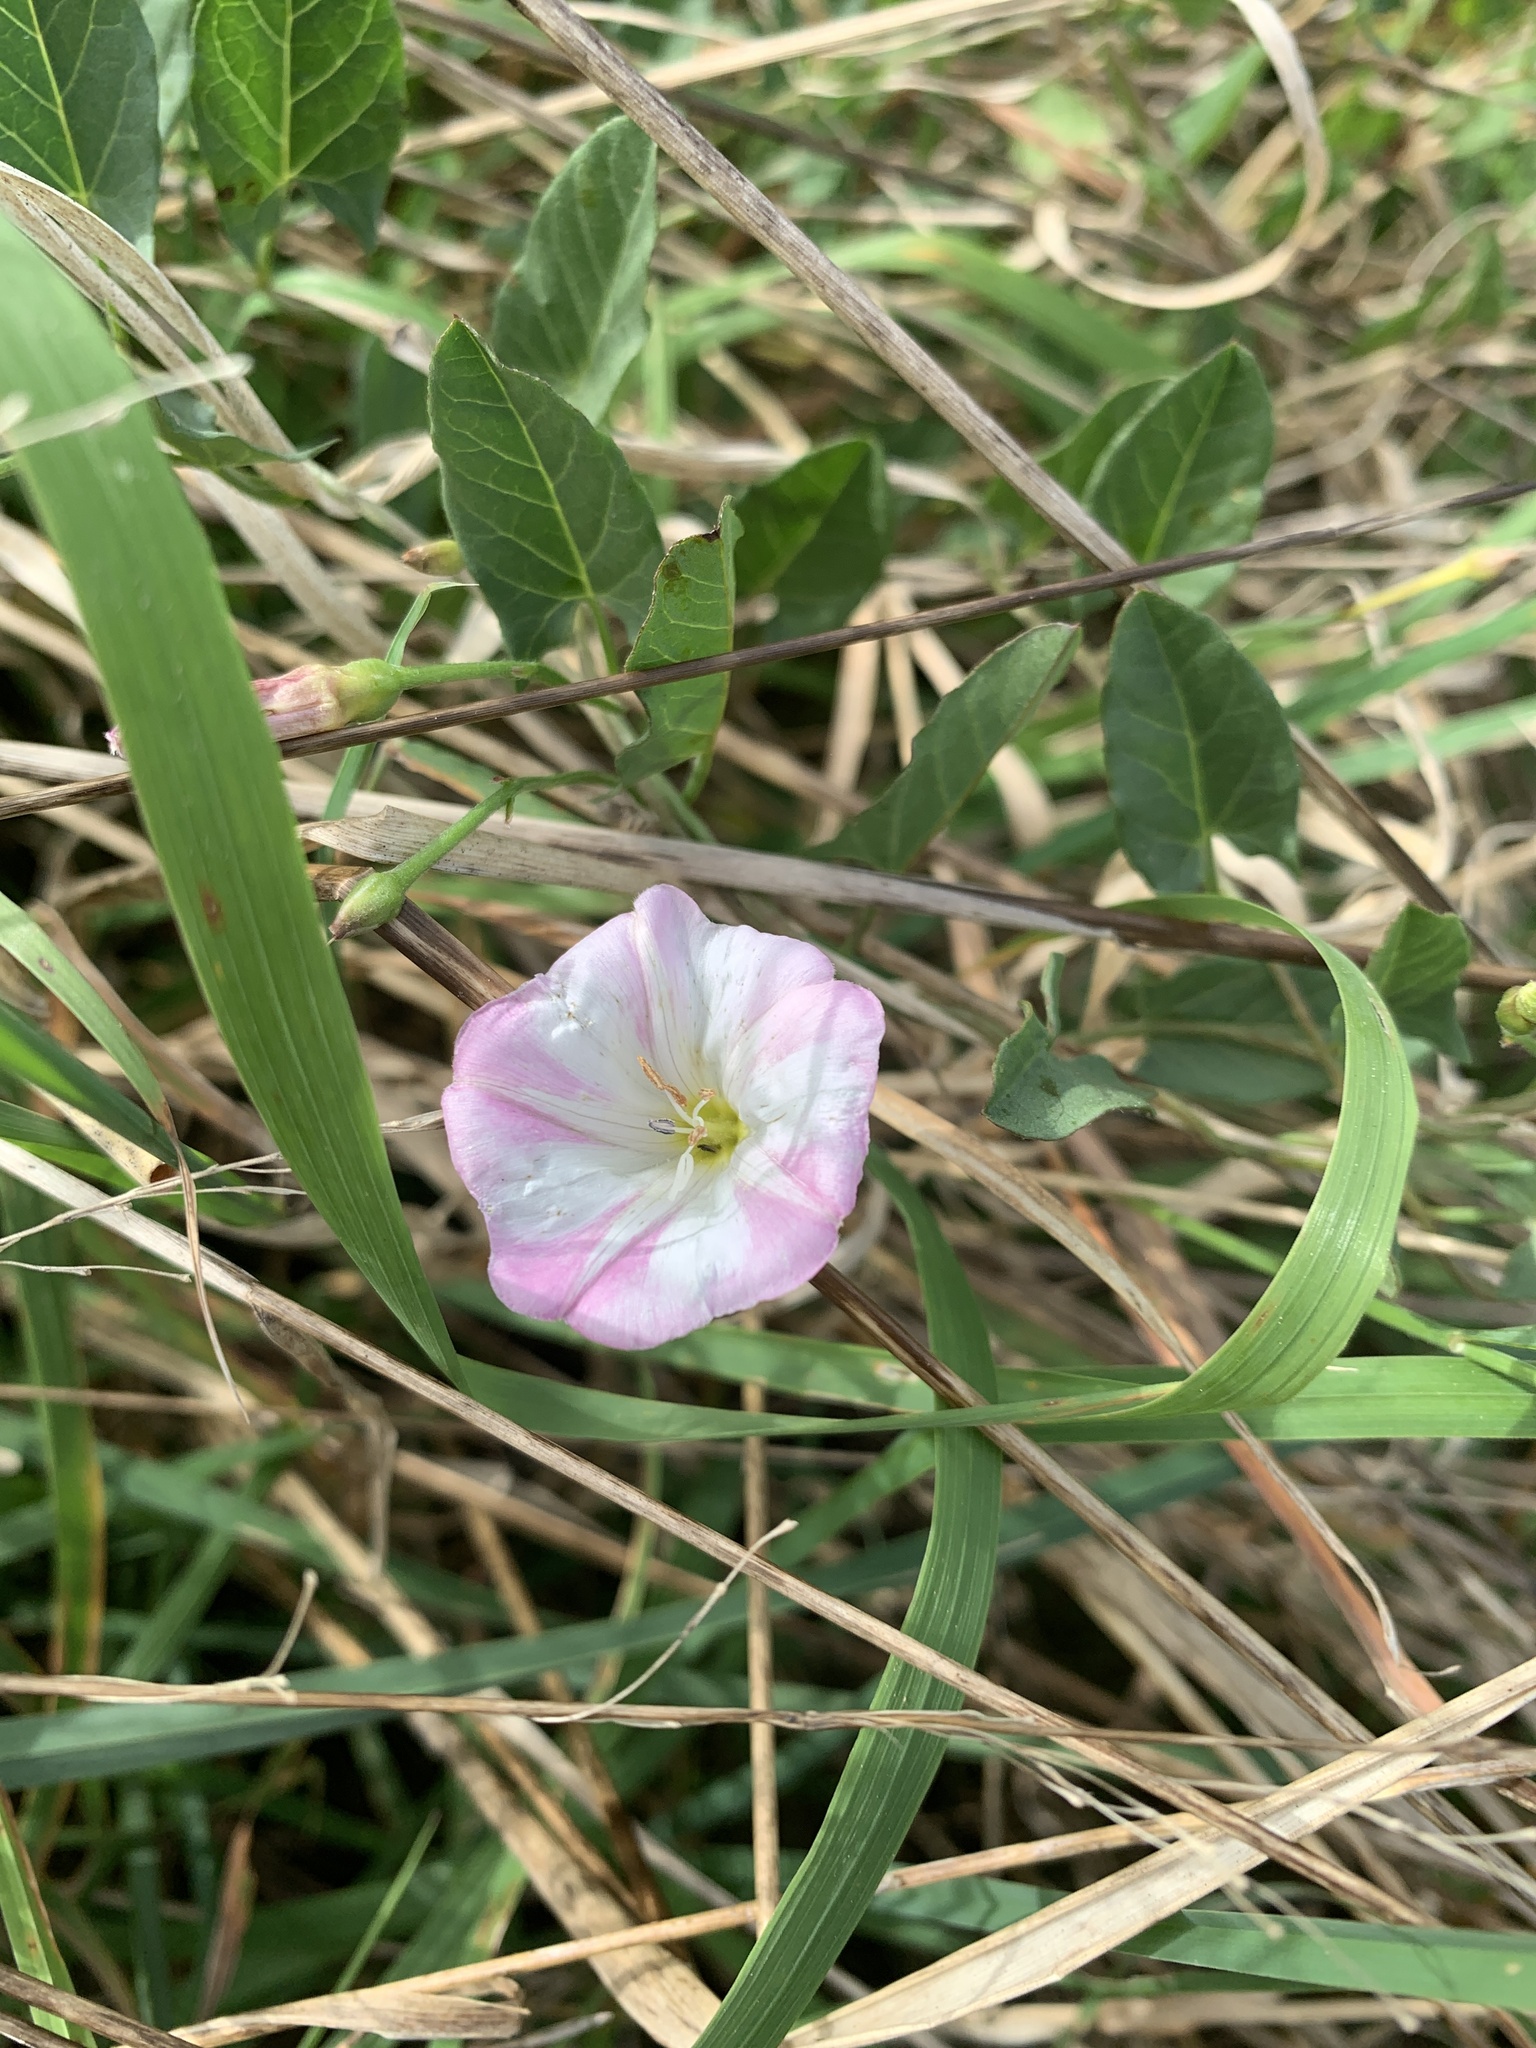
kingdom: Plantae
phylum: Tracheophyta
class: Magnoliopsida
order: Solanales
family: Convolvulaceae
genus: Convolvulus
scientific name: Convolvulus arvensis
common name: Field bindweed
